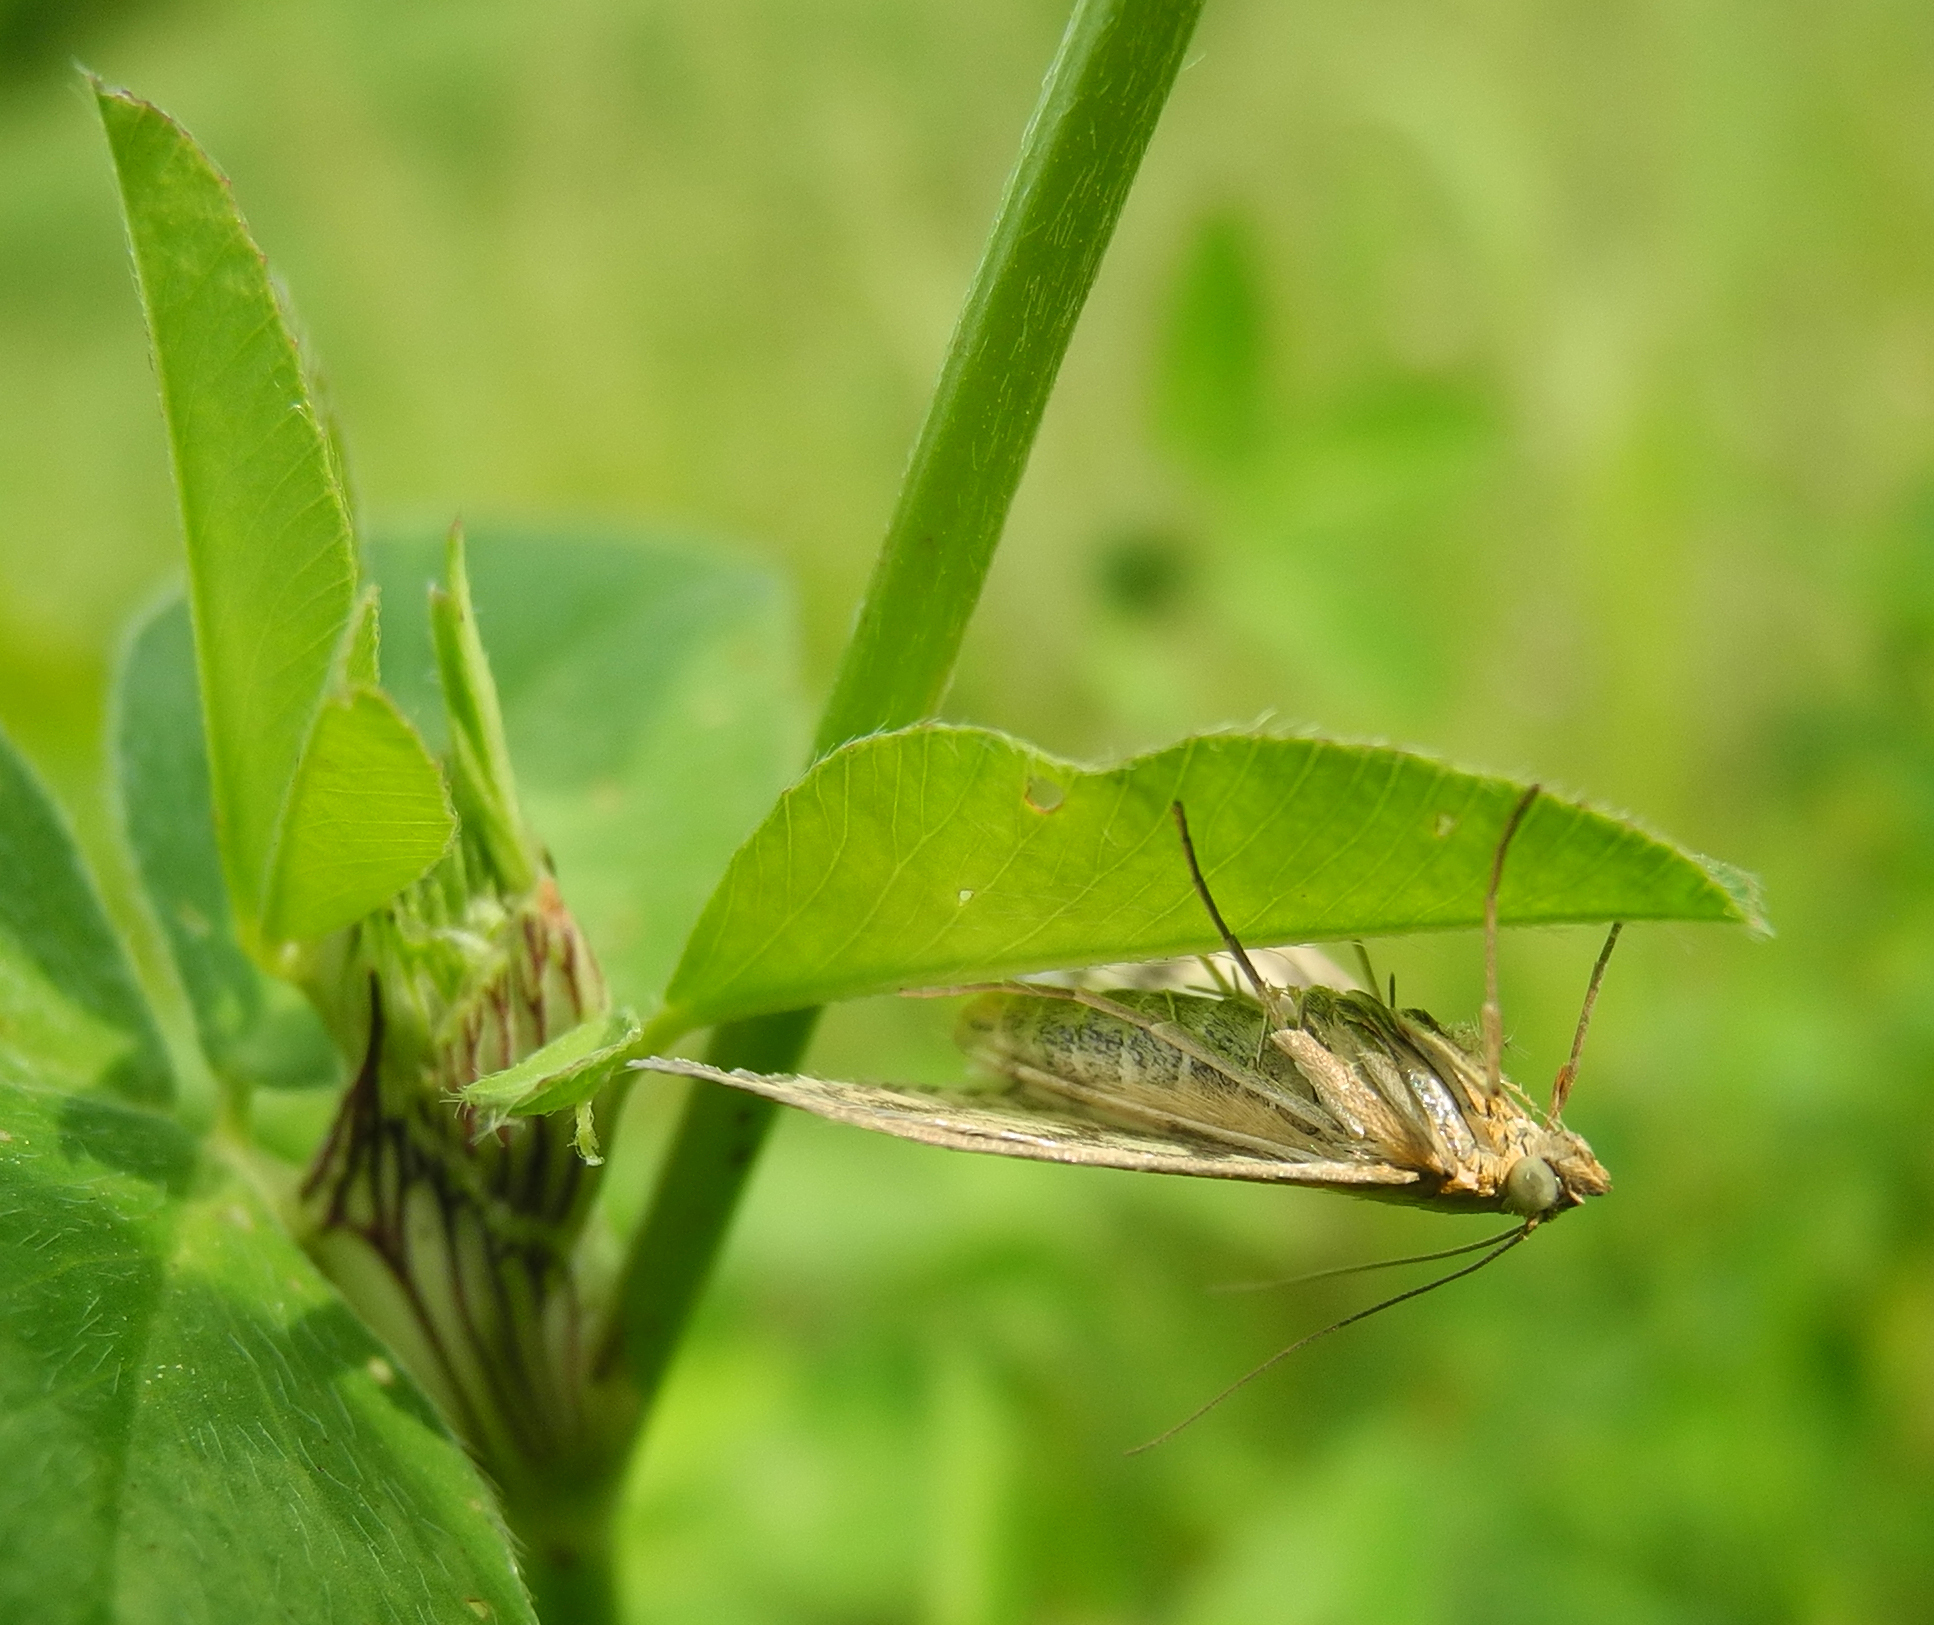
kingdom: Animalia
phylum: Arthropoda
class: Insecta
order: Lepidoptera
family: Crambidae
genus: Sitochroa
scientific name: Sitochroa verticalis
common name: Lesser pearl
